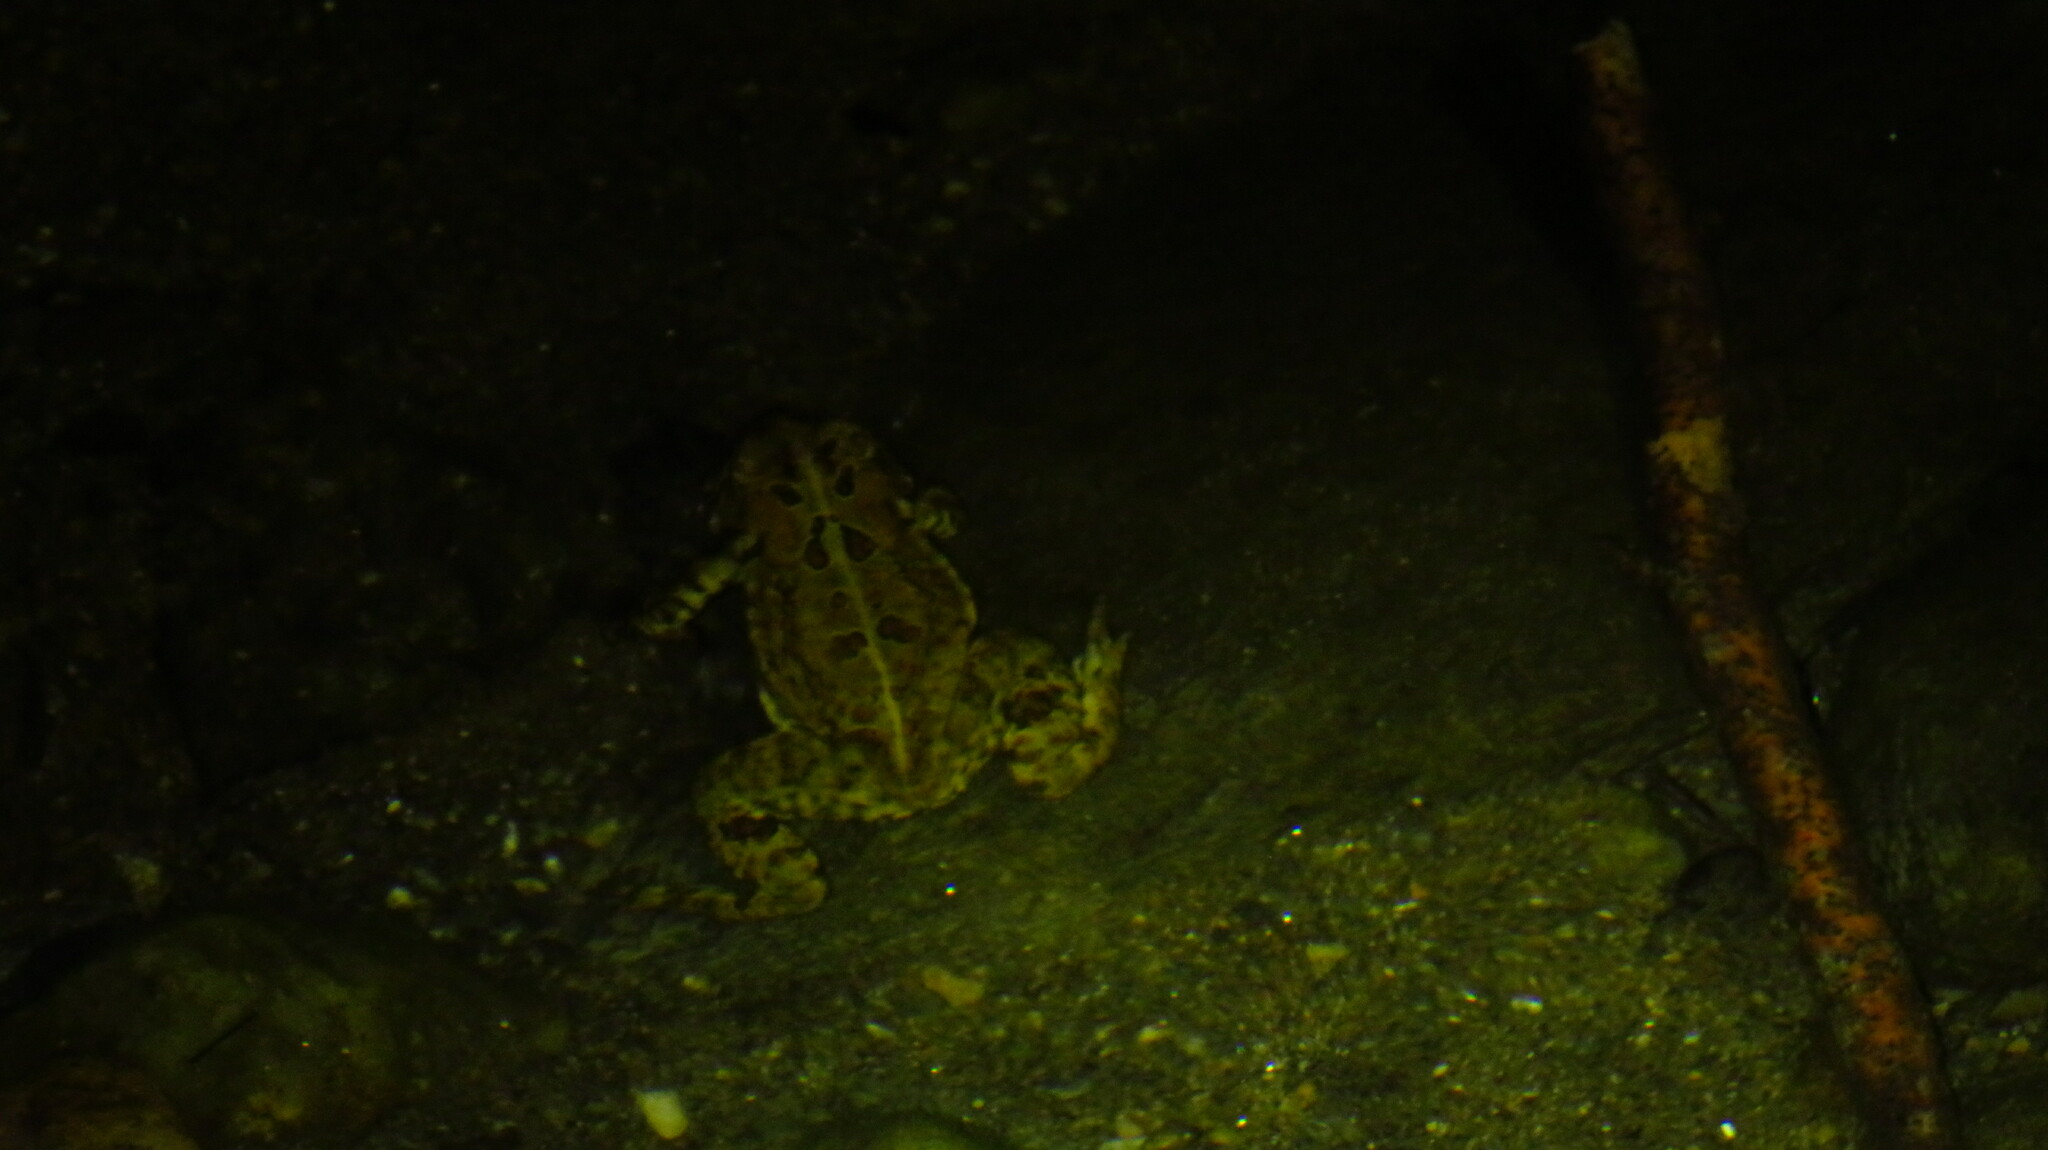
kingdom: Animalia
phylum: Chordata
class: Amphibia
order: Anura
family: Bufonidae
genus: Anaxyrus
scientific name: Anaxyrus americanus
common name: American toad
